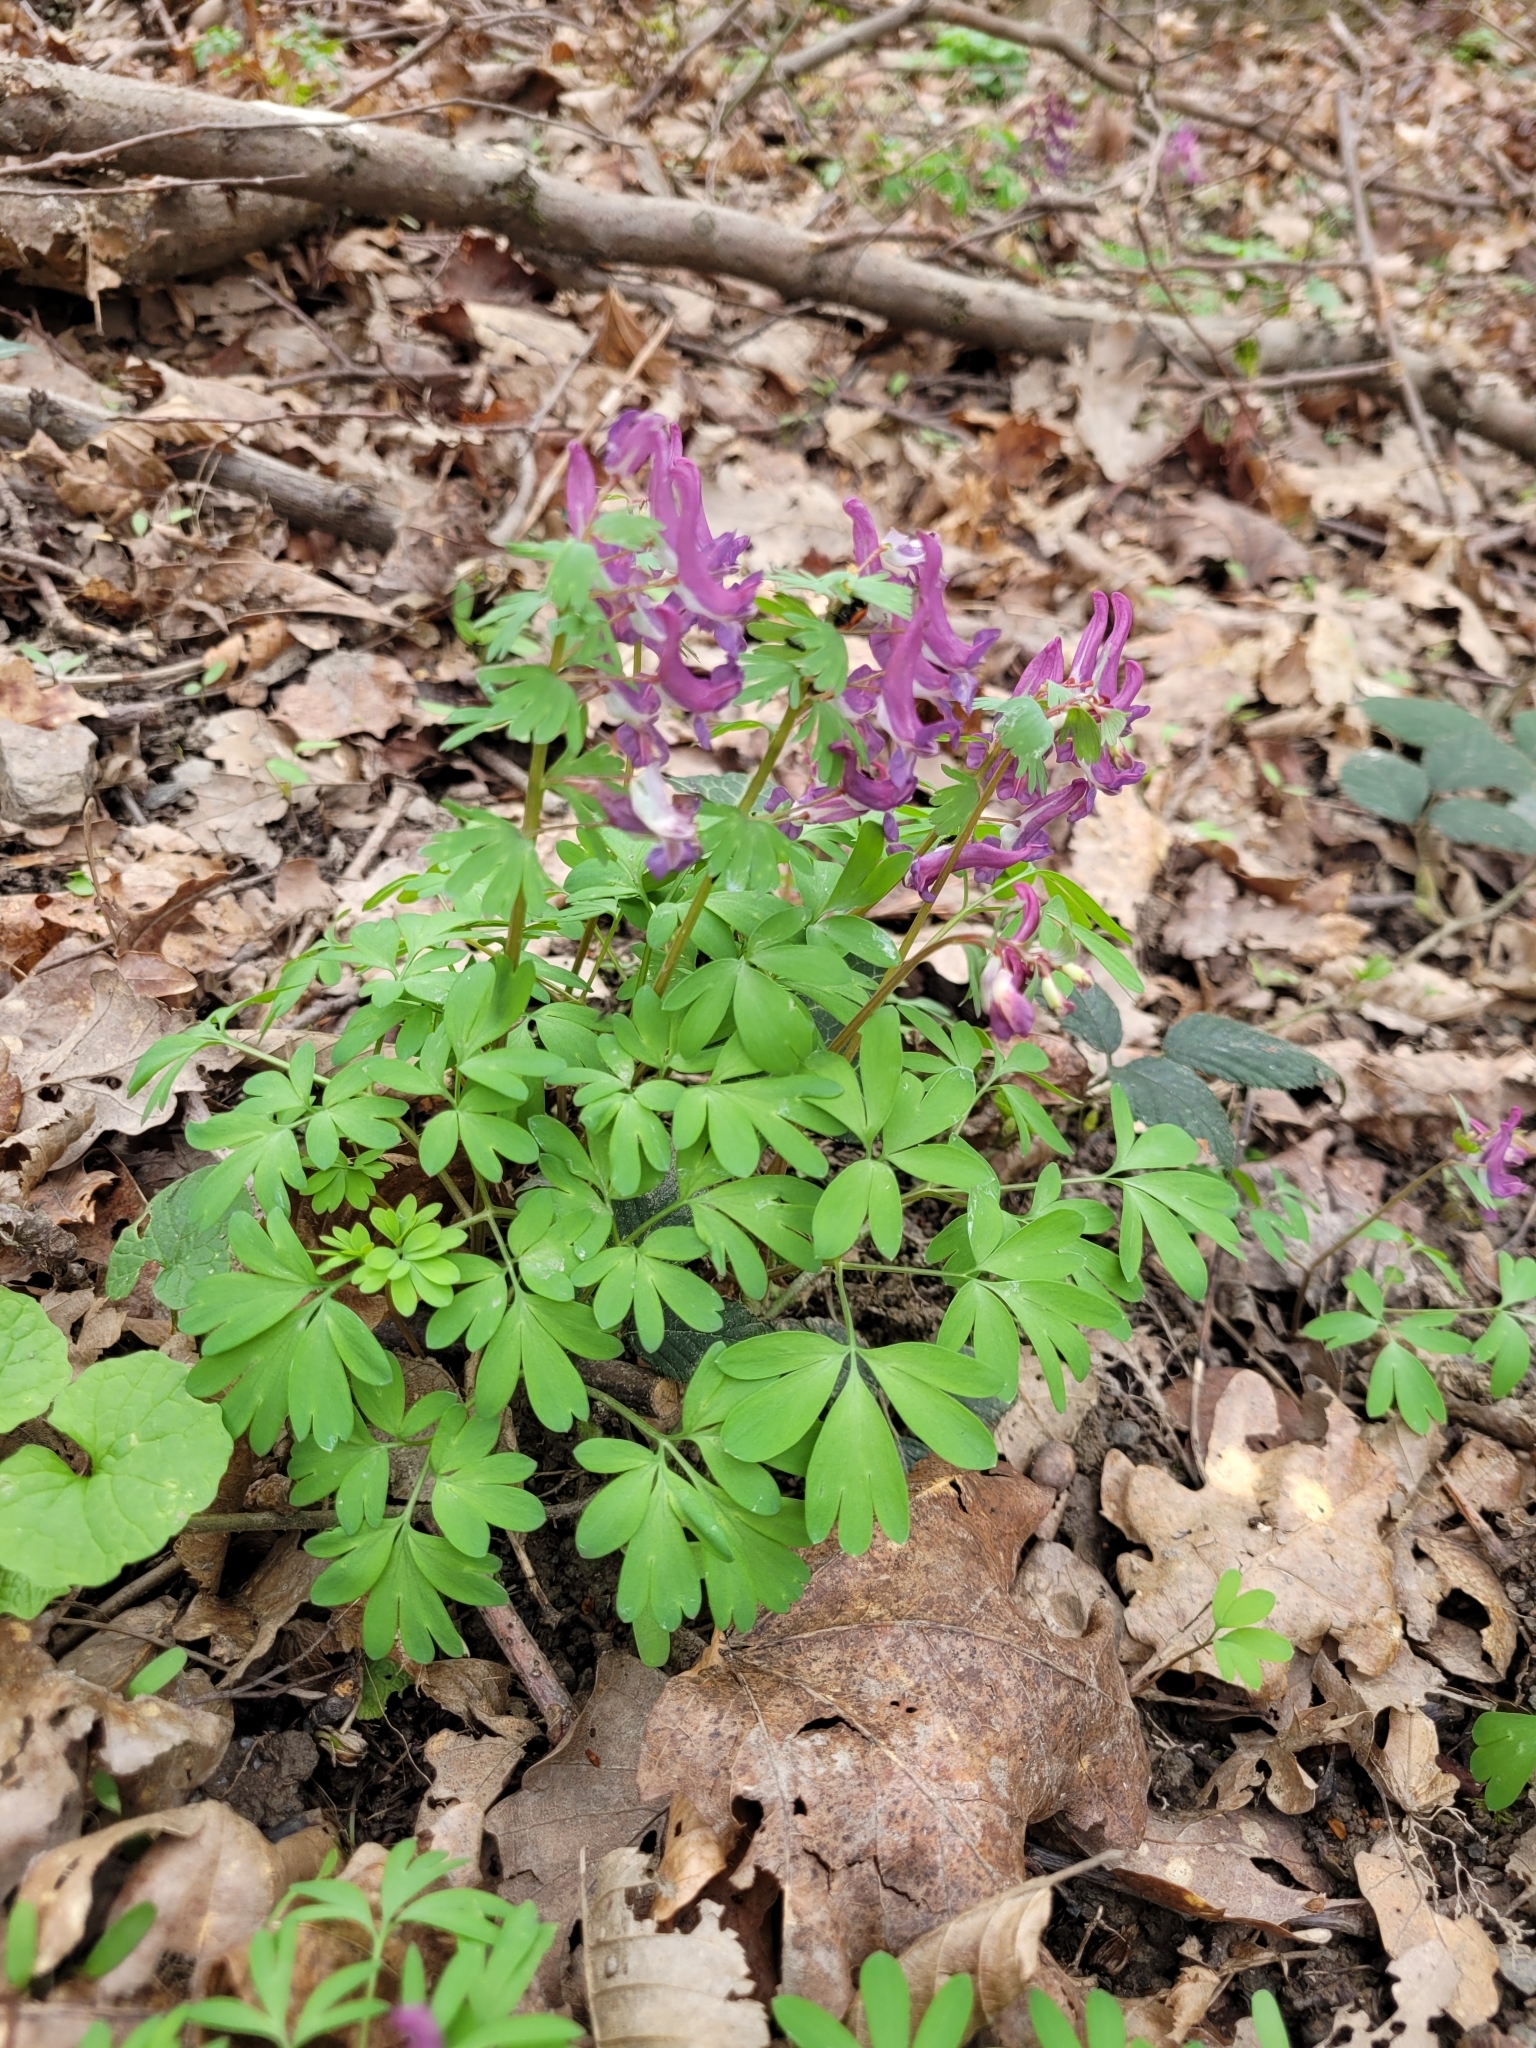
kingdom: Plantae
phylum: Tracheophyta
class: Magnoliopsida
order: Ranunculales
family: Papaveraceae
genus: Corydalis
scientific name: Corydalis solida
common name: Bird-in-a-bush
